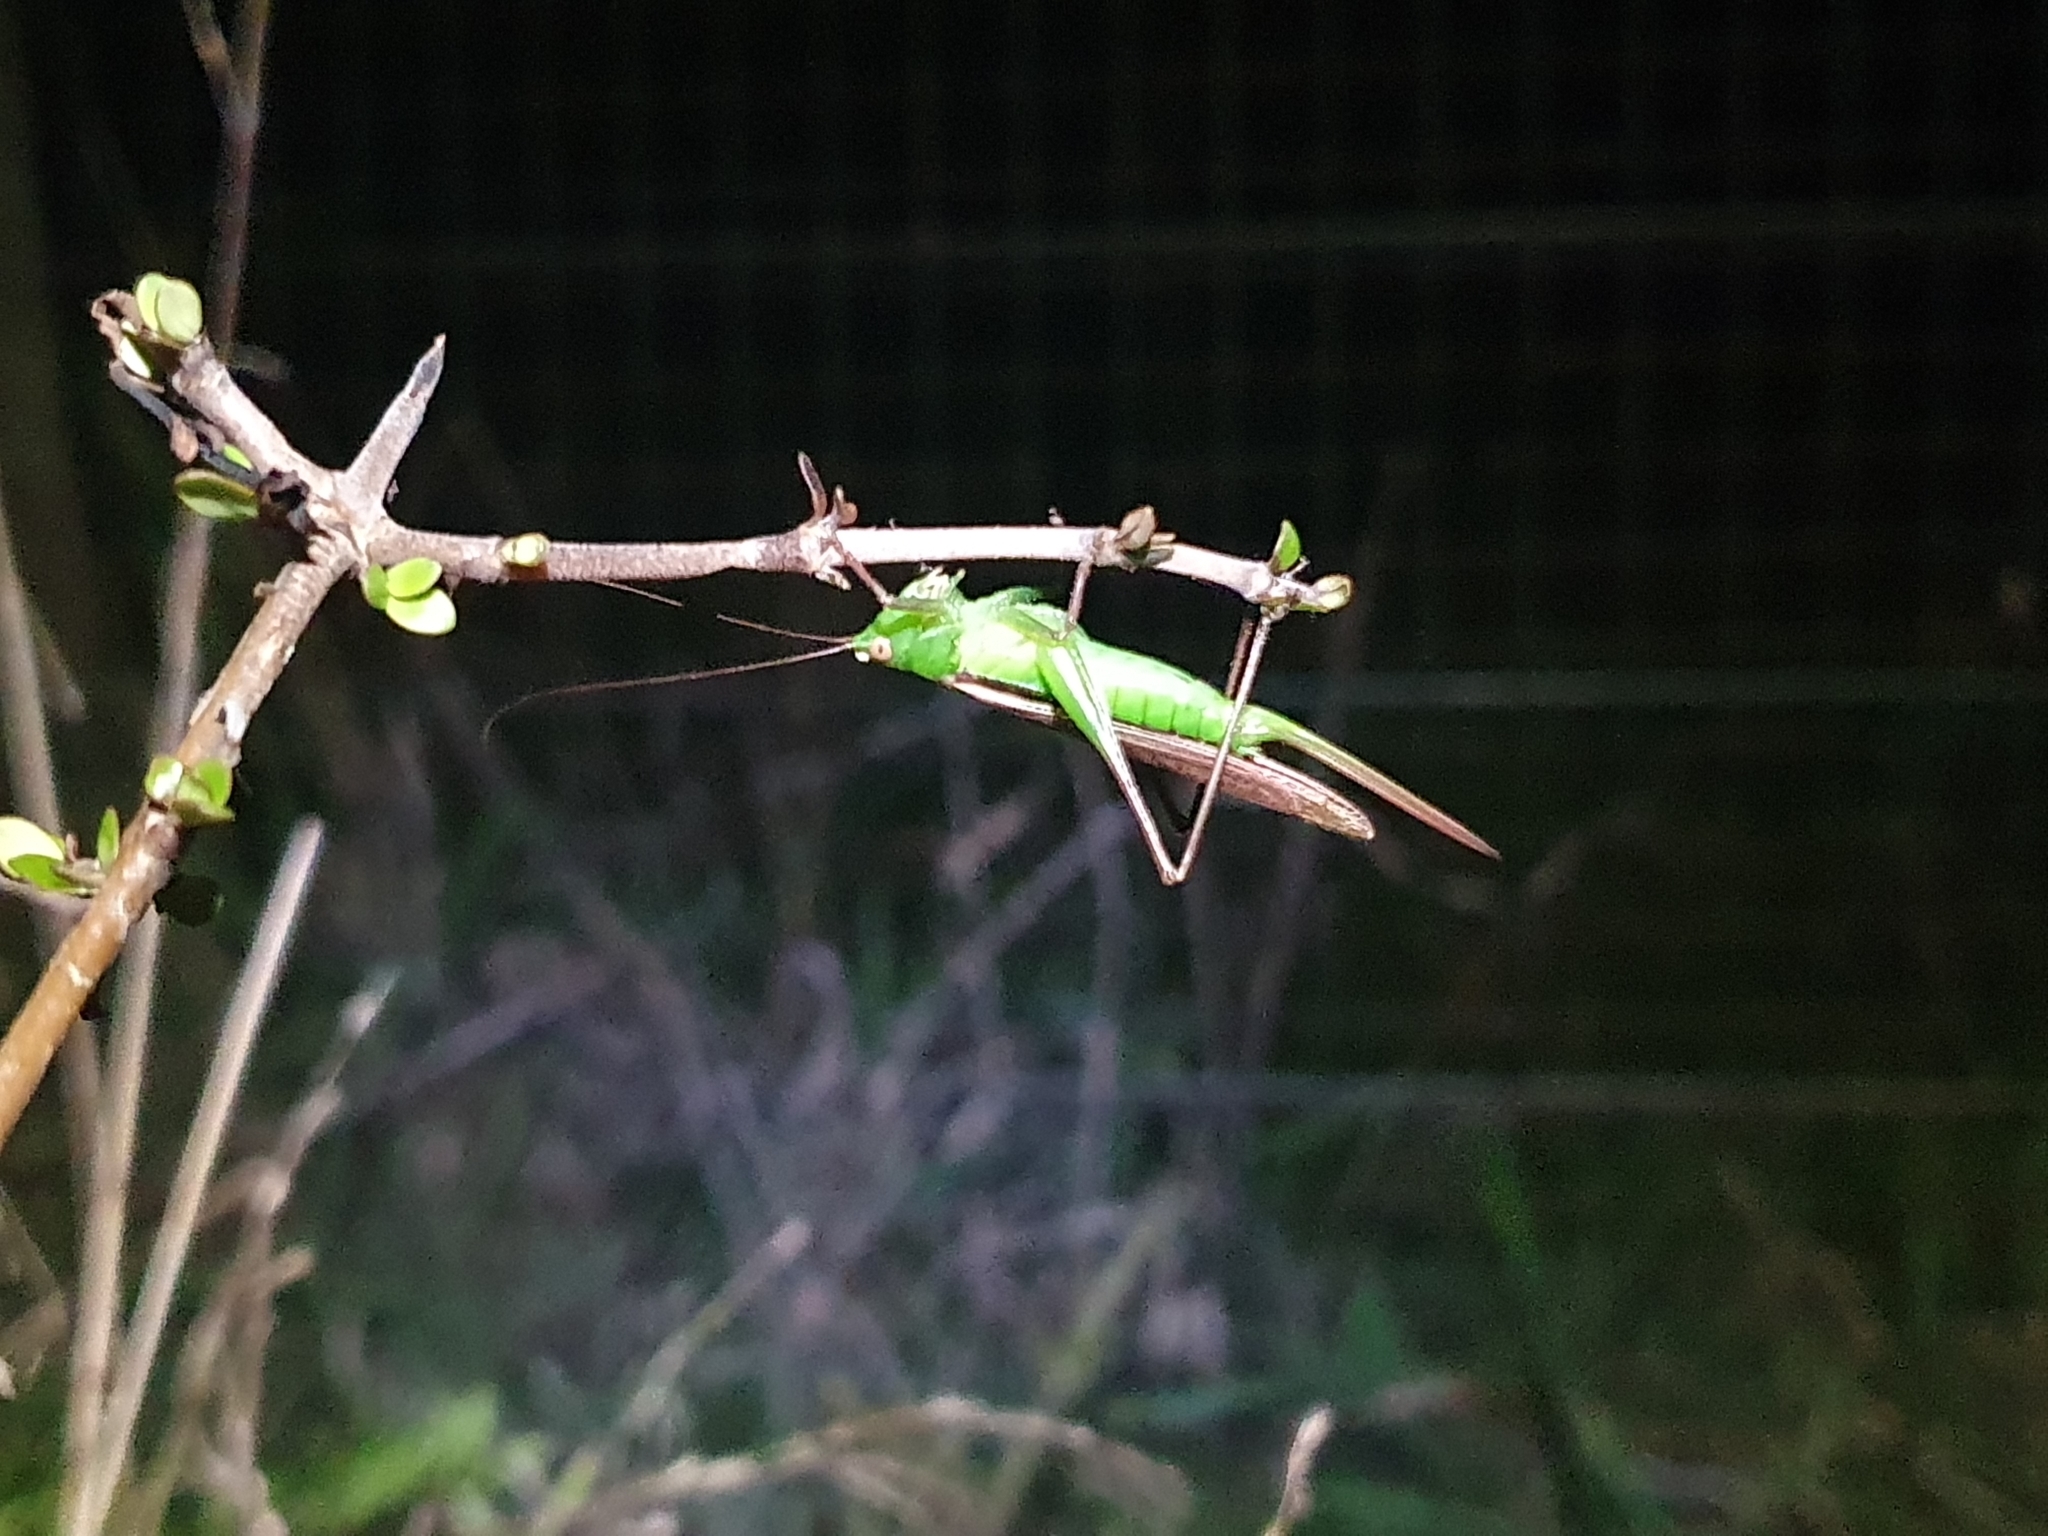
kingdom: Animalia
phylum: Arthropoda
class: Insecta
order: Orthoptera
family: Tettigoniidae
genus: Conocephalus
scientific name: Conocephalus albescens
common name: Whitish meadow katydid
